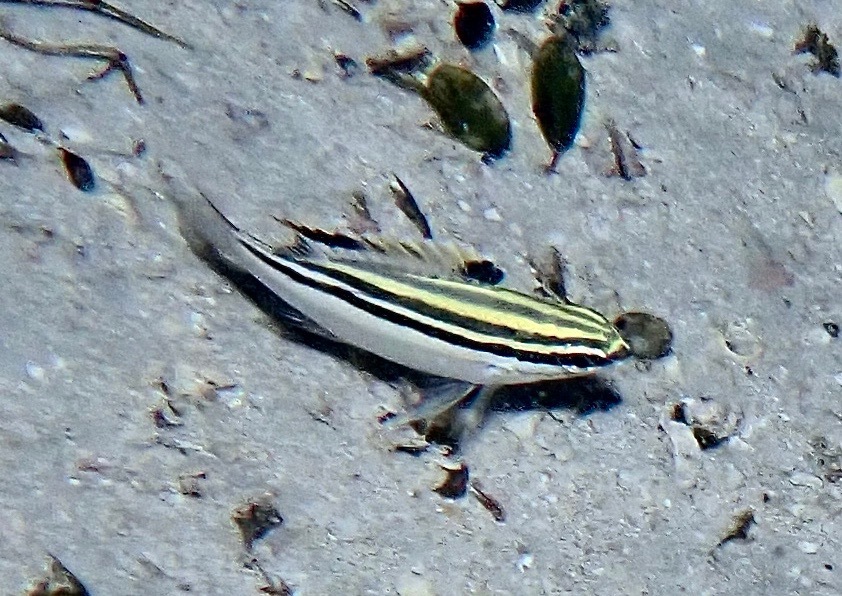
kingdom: Animalia
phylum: Chordata
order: Perciformes
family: Nemipteridae
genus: Scolopsis
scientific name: Scolopsis bilineata
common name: Two-lined monocle bream
